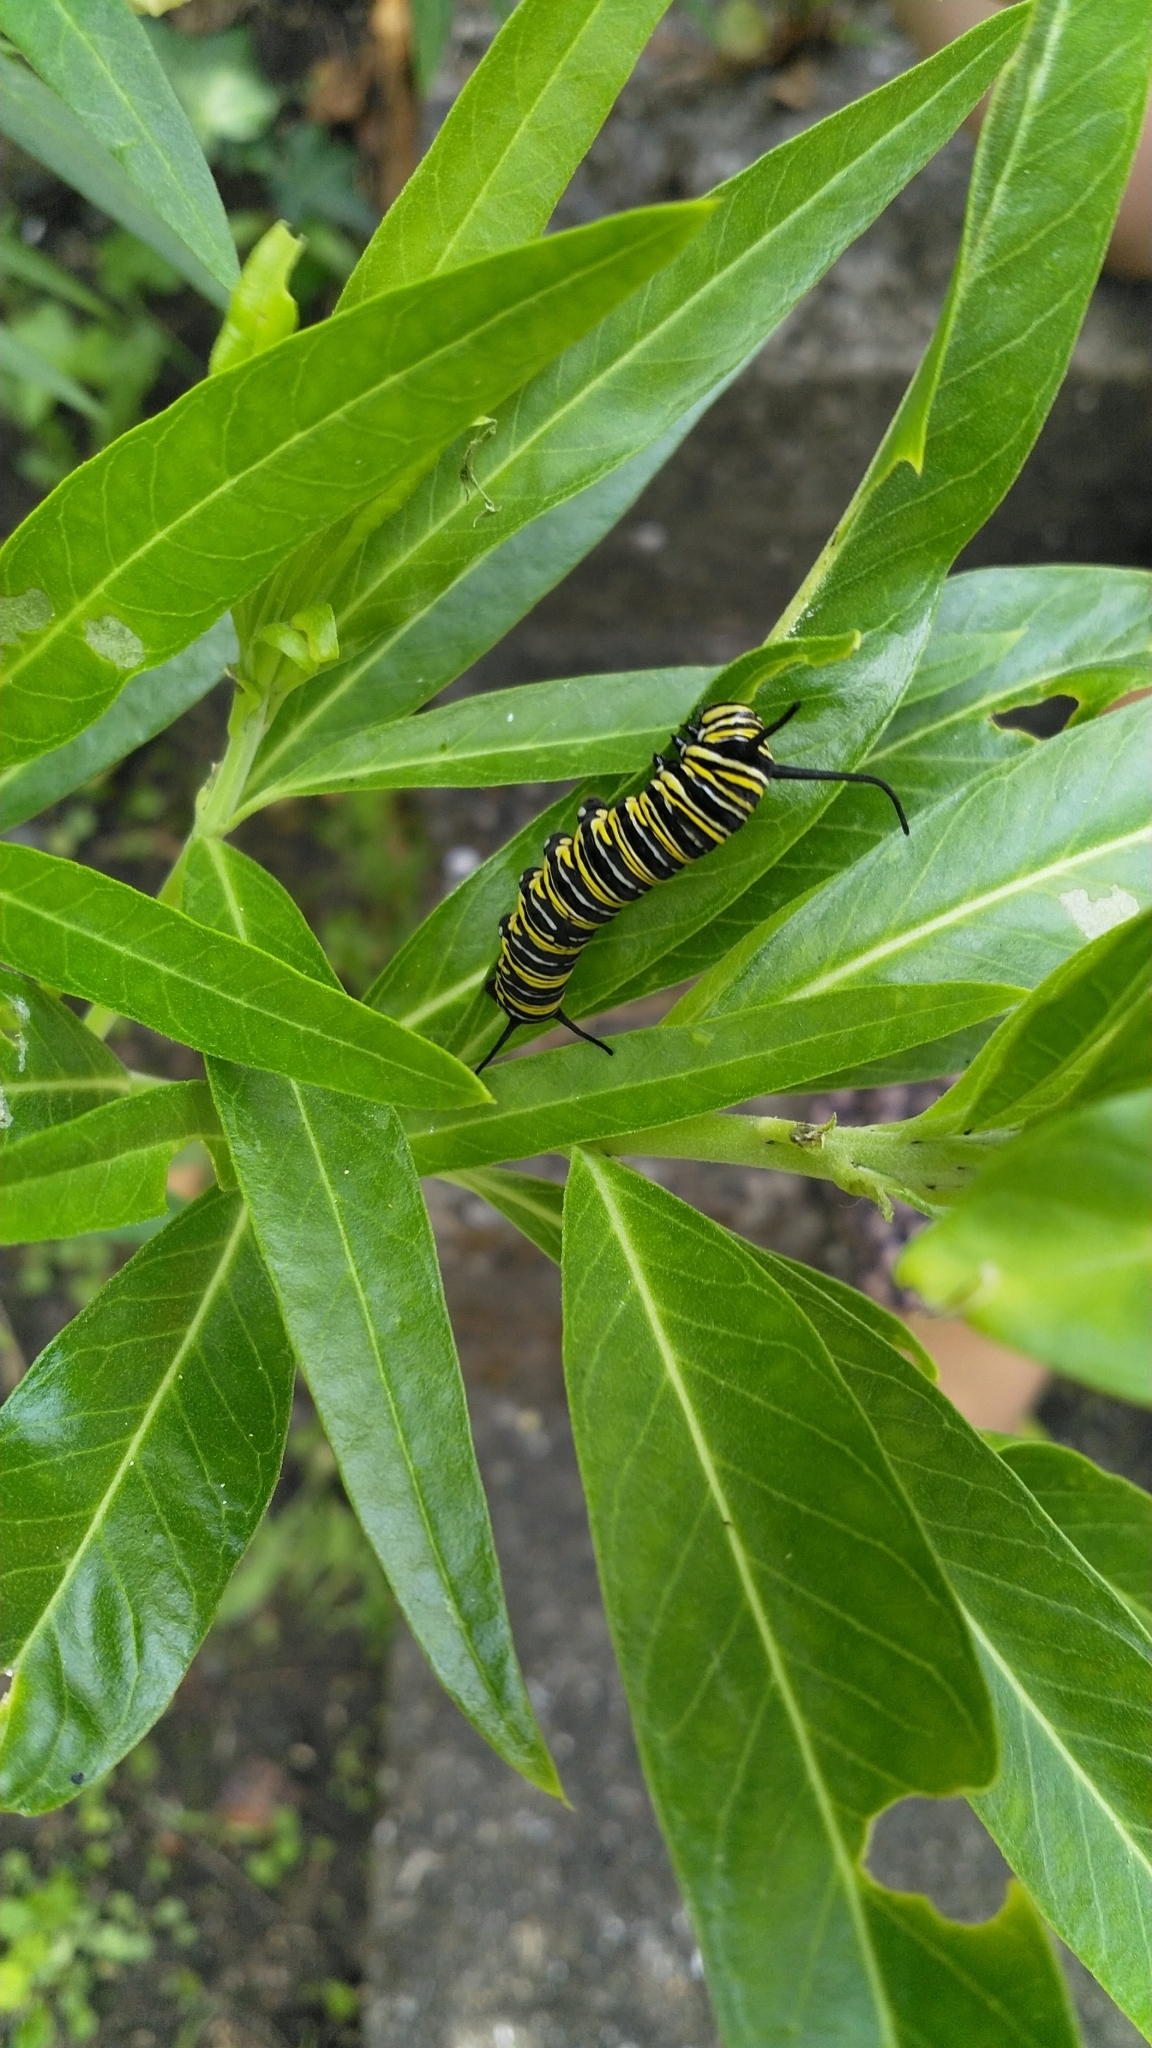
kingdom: Animalia
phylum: Arthropoda
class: Insecta
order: Lepidoptera
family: Nymphalidae
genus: Danaus
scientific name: Danaus plexippus
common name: Monarch
